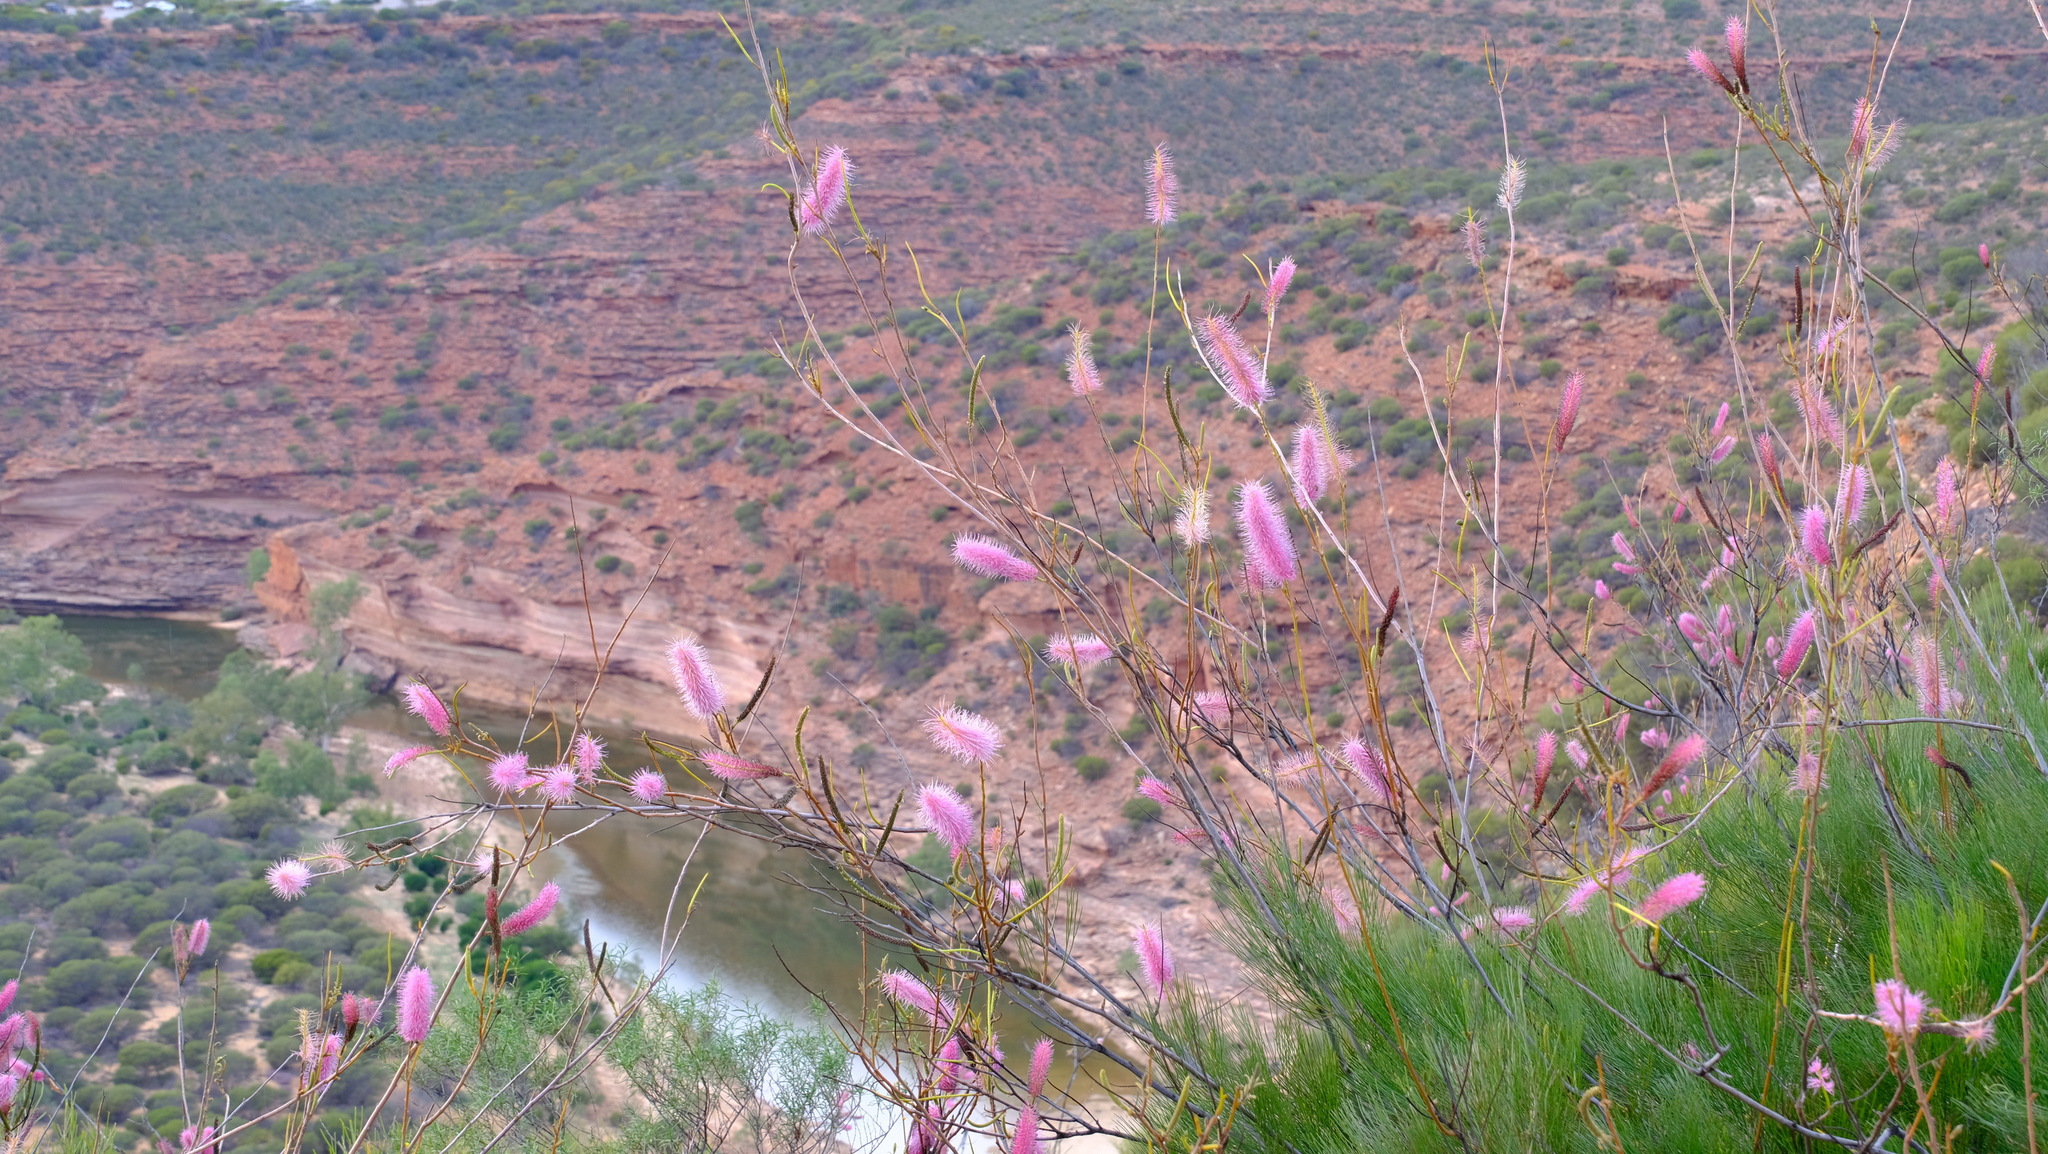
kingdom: Plantae
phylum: Tracheophyta
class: Magnoliopsida
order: Proteales
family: Proteaceae
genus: Grevillea
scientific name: Grevillea petrophiloides
